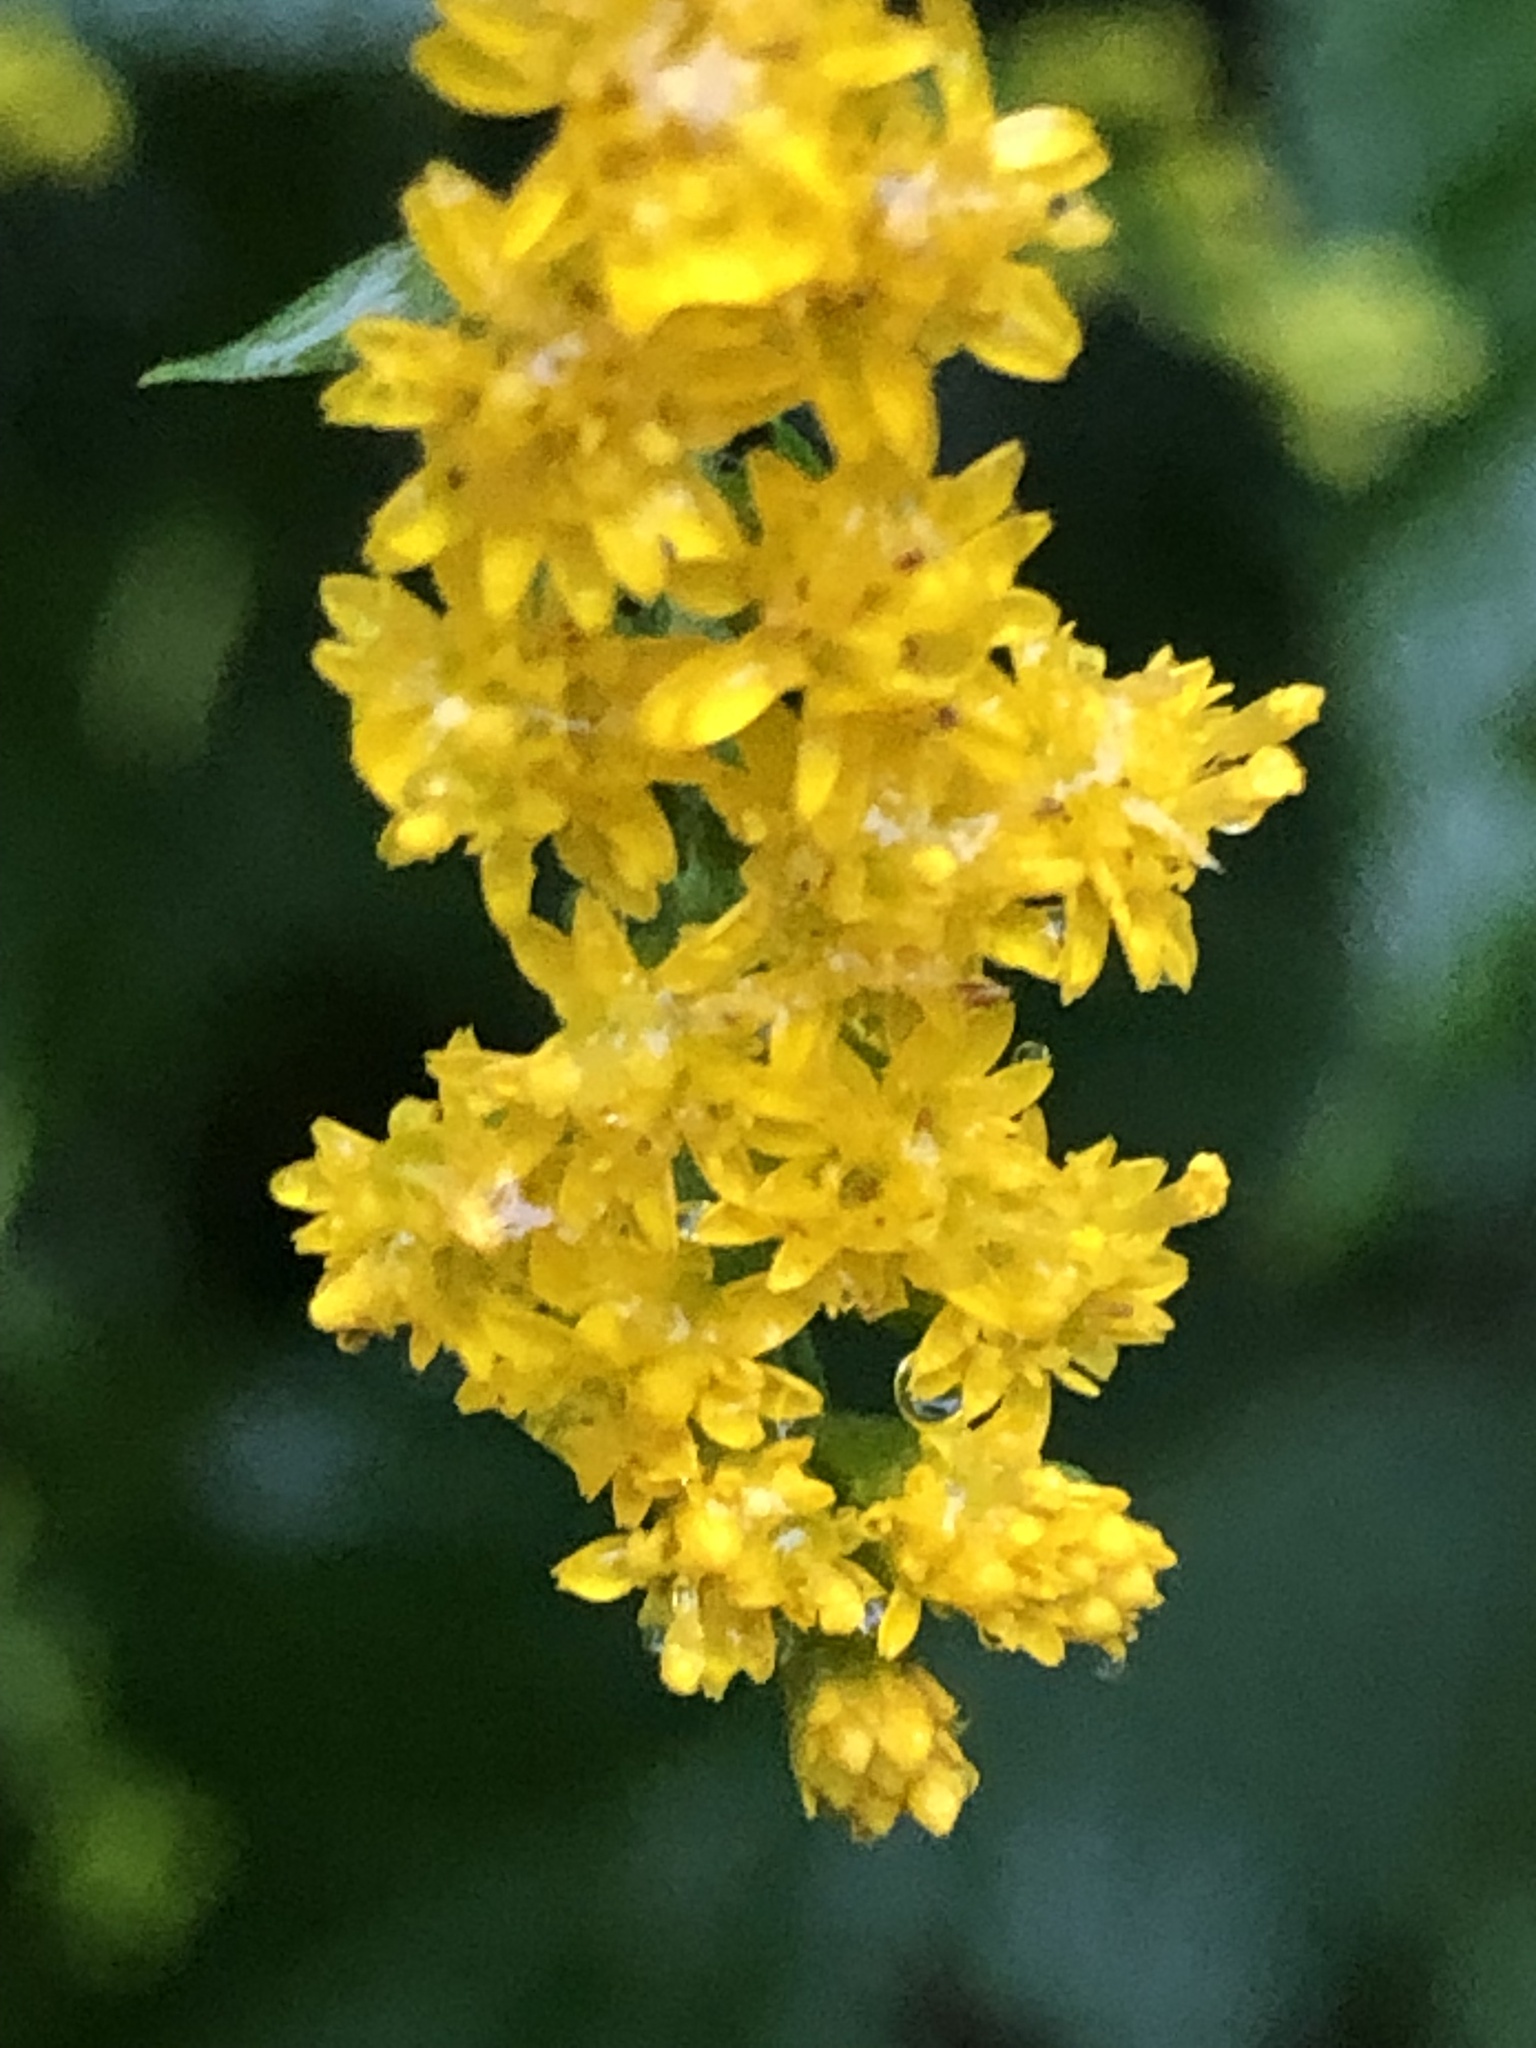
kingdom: Plantae
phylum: Tracheophyta
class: Magnoliopsida
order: Asterales
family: Asteraceae
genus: Solidago
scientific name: Solidago caesia
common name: Woodland goldenrod
